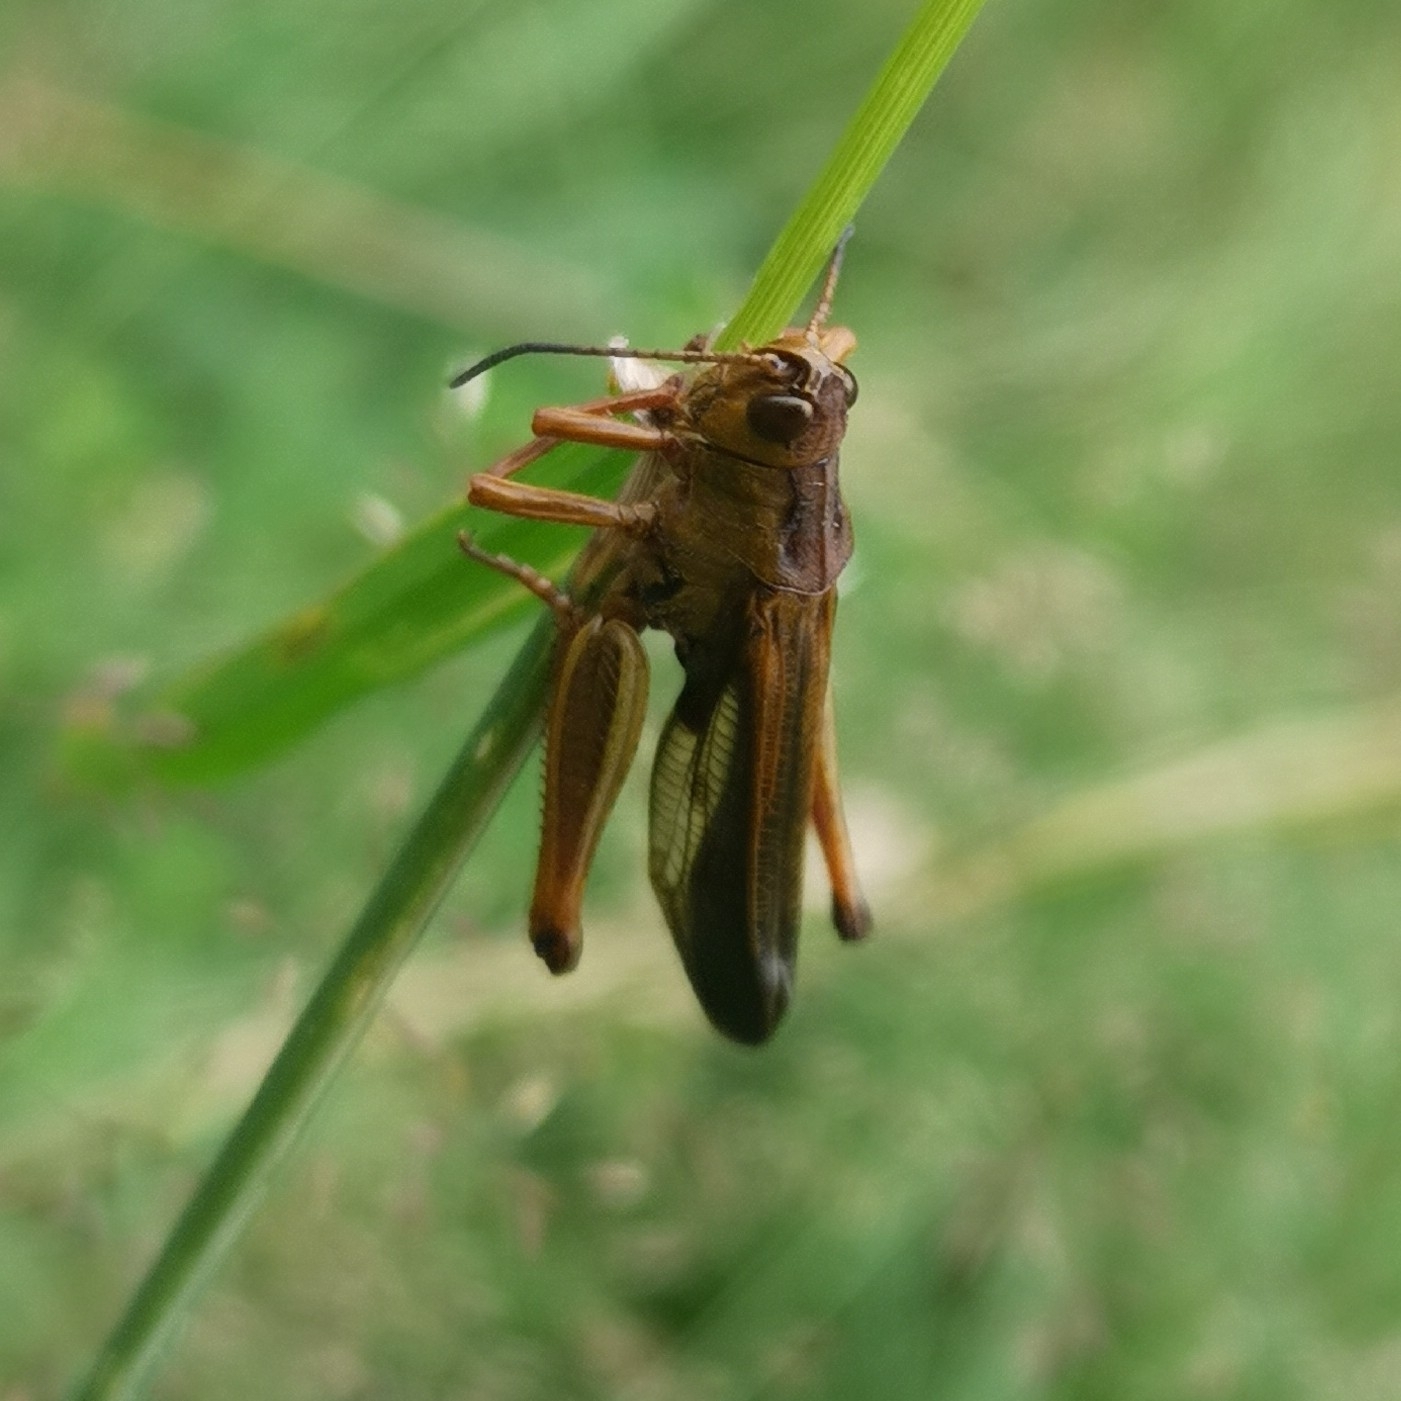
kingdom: Animalia
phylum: Arthropoda
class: Insecta
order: Orthoptera
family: Acrididae
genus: Stauroderus
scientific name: Stauroderus scalaris
